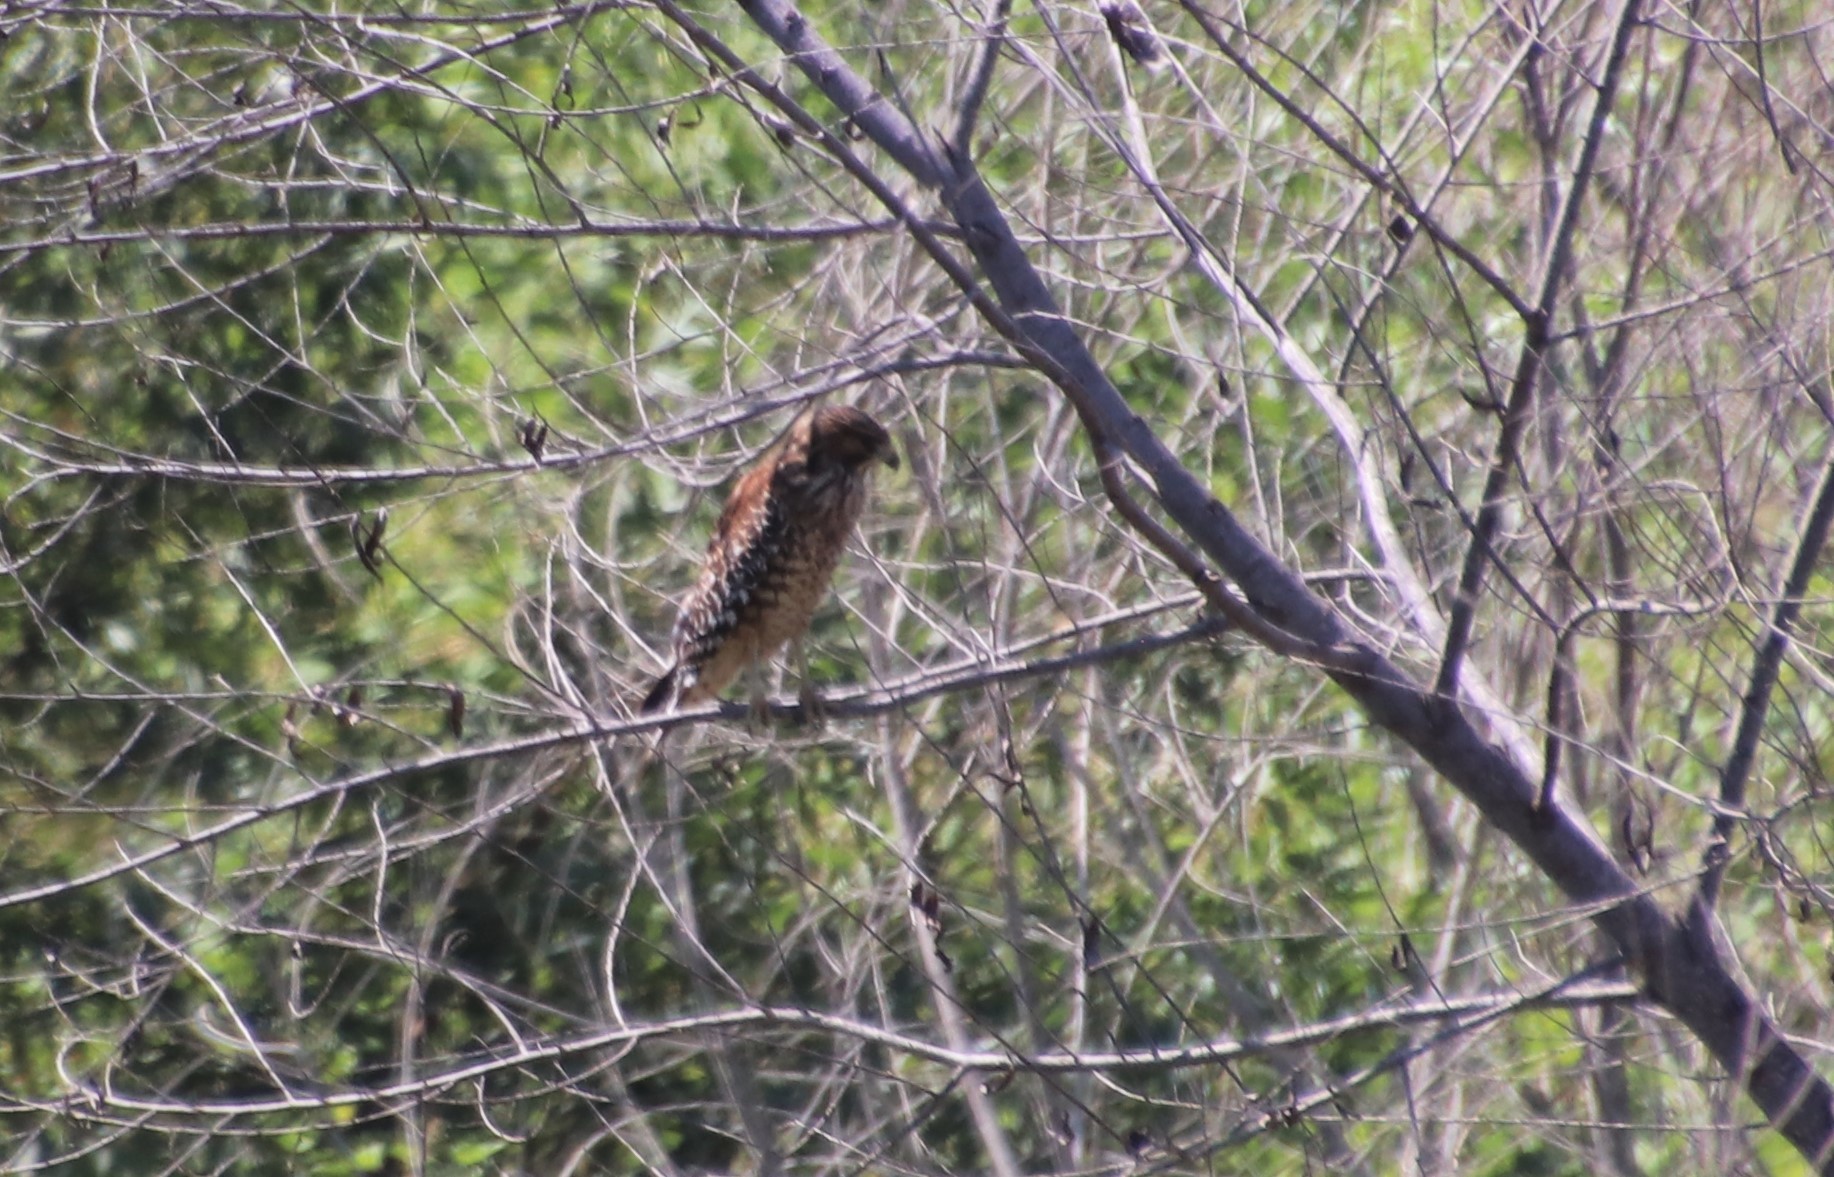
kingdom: Animalia
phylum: Chordata
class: Aves
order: Accipitriformes
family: Accipitridae
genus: Buteo
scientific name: Buteo lineatus
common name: Red-shouldered hawk
